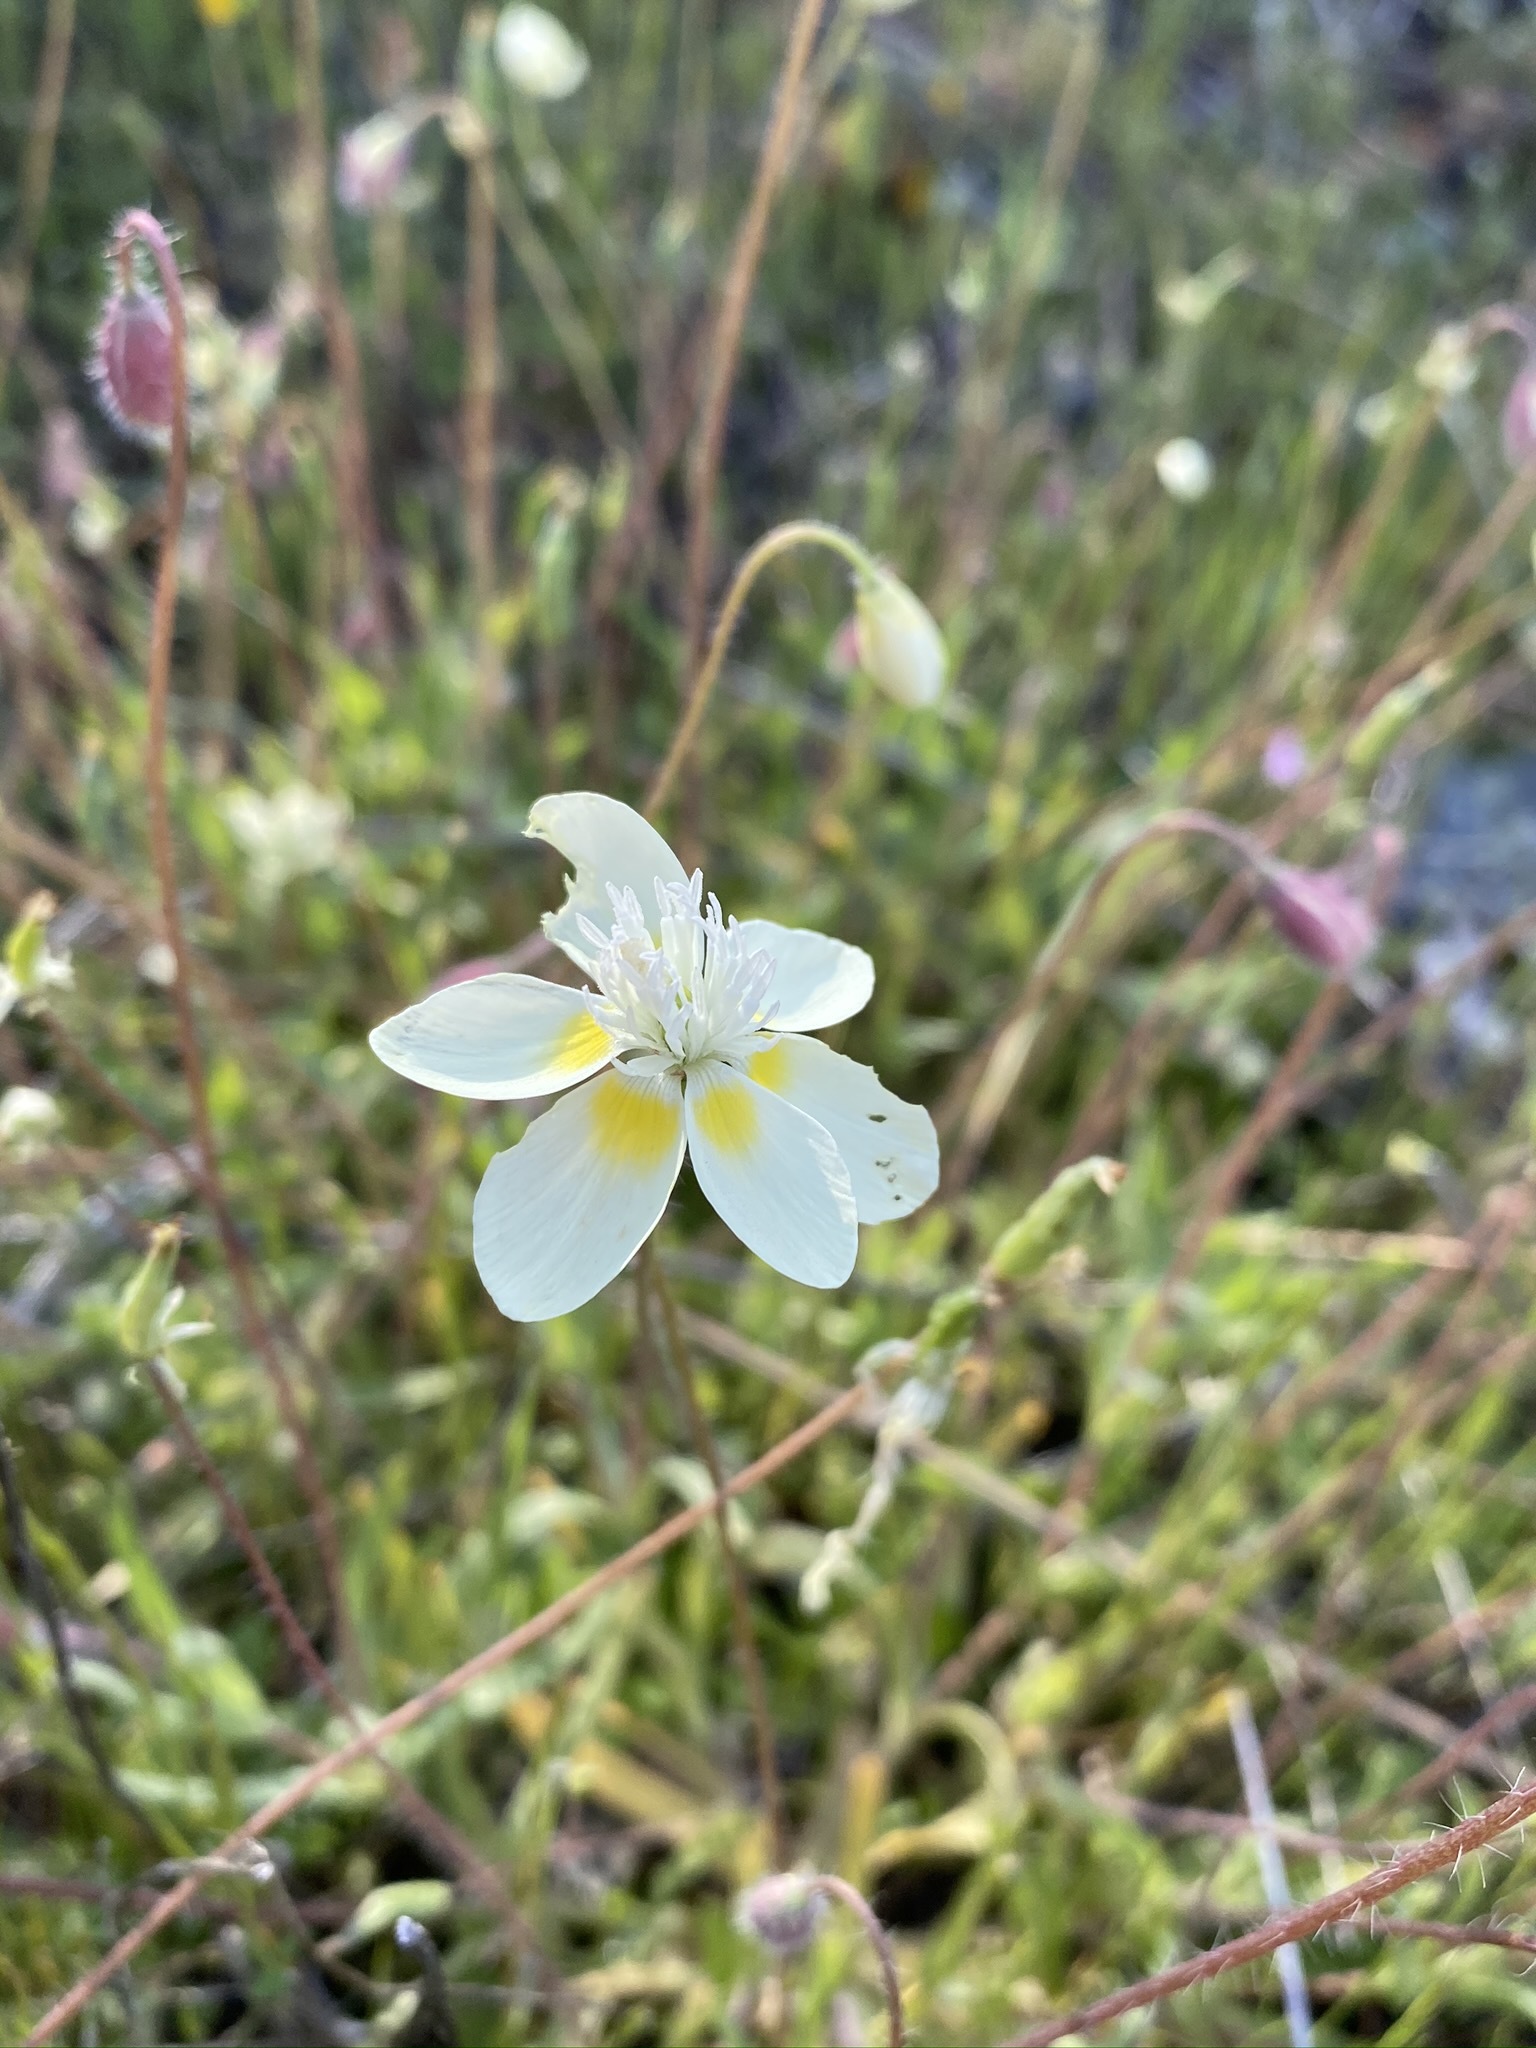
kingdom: Plantae
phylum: Tracheophyta
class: Magnoliopsida
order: Ranunculales
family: Papaveraceae
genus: Platystemon
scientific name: Platystemon californicus
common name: Cream-cups
